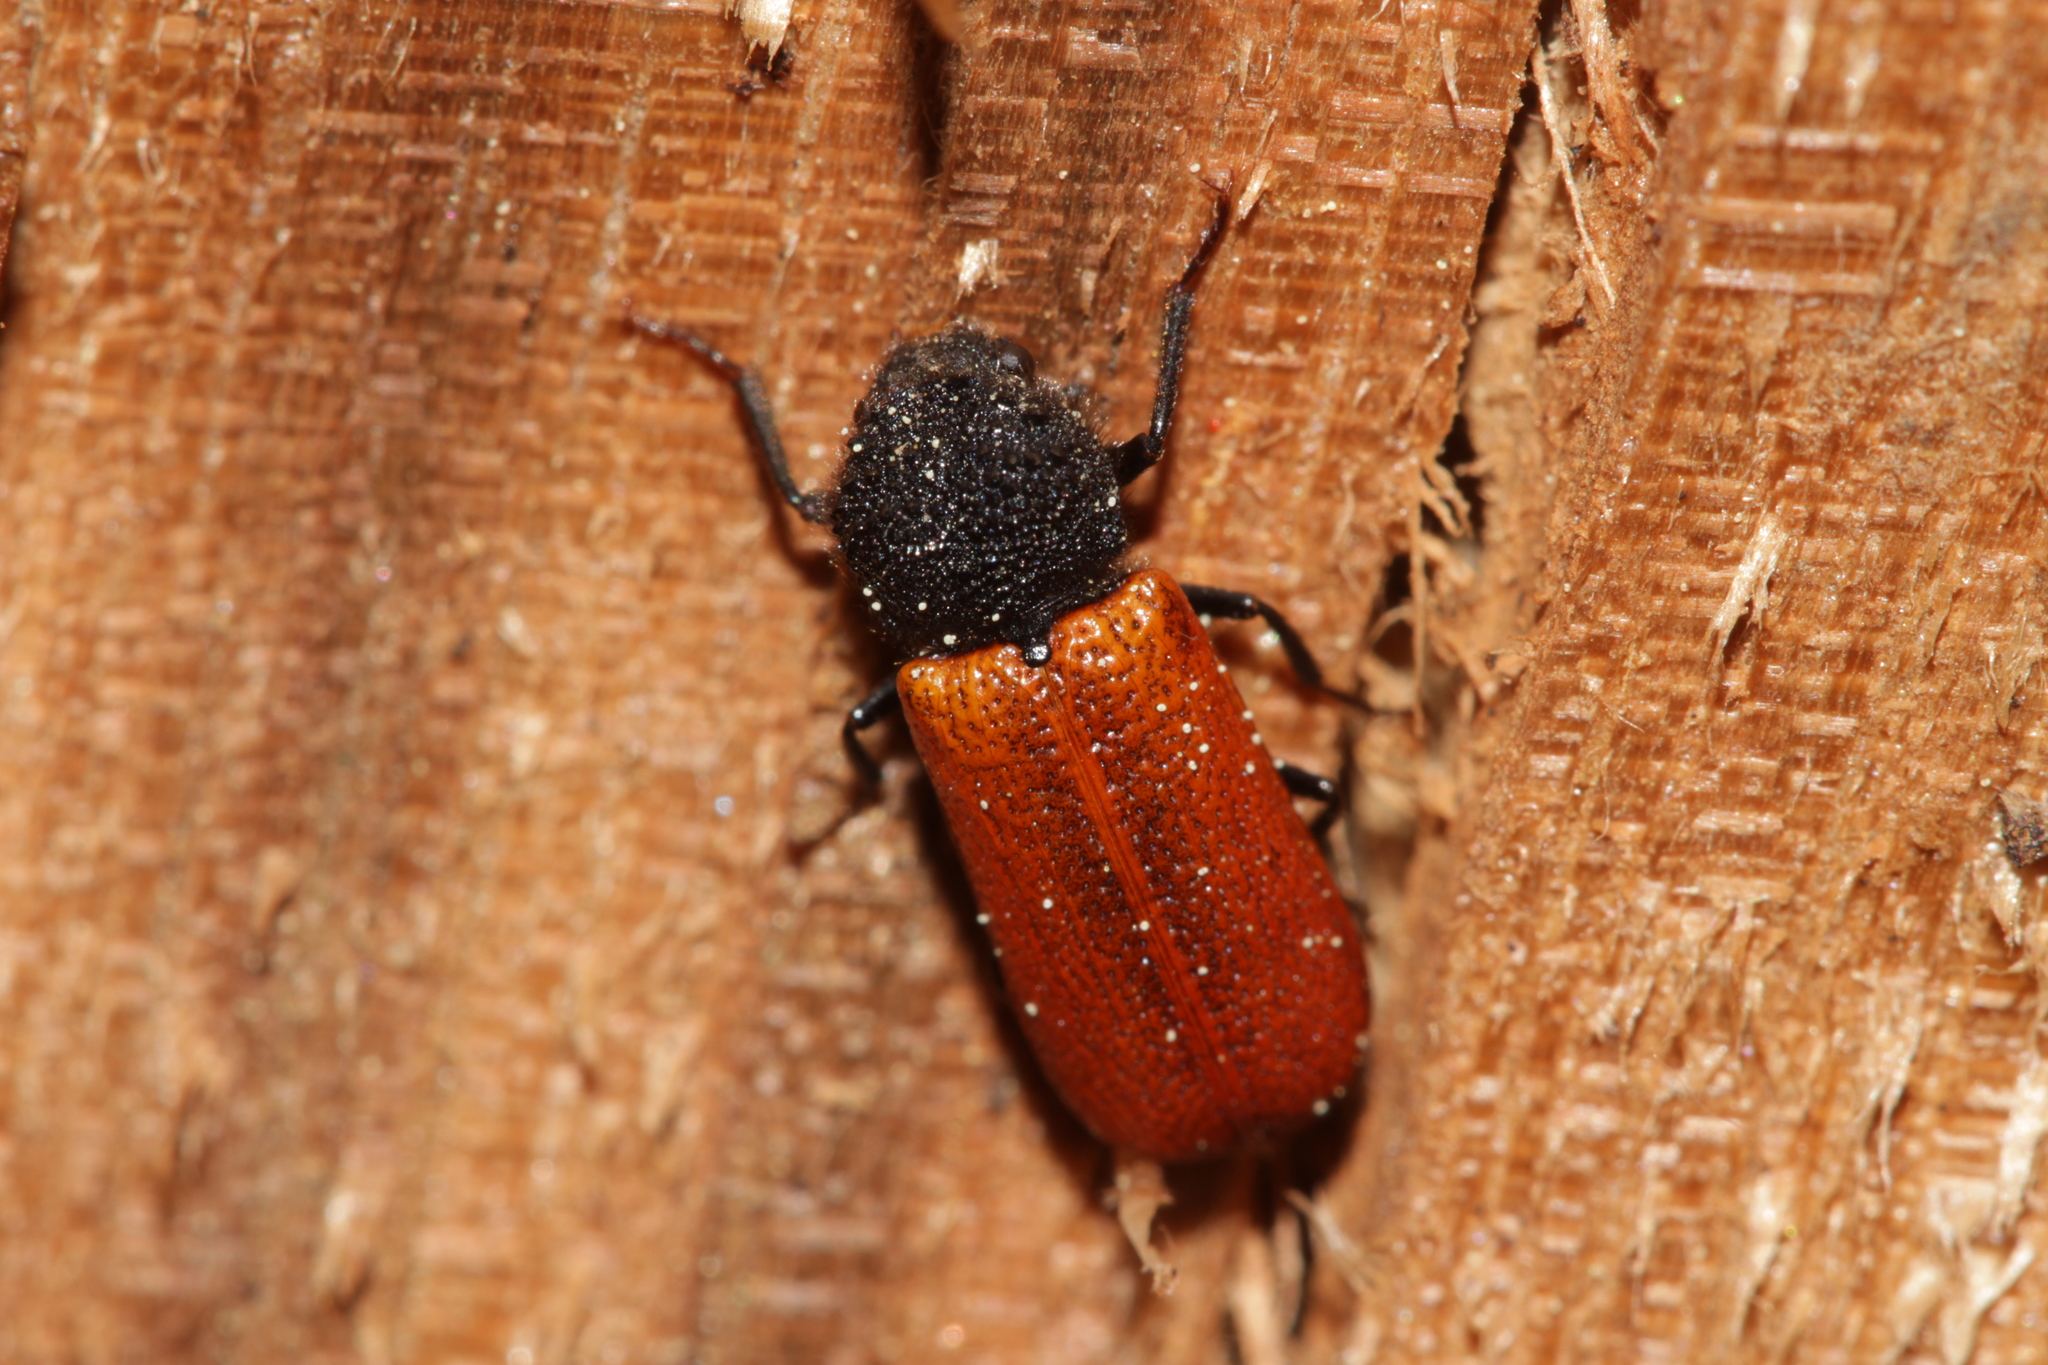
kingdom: Animalia
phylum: Arthropoda
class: Insecta
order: Coleoptera
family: Bostrichidae
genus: Bostrichus
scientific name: Bostrichus capucinus
